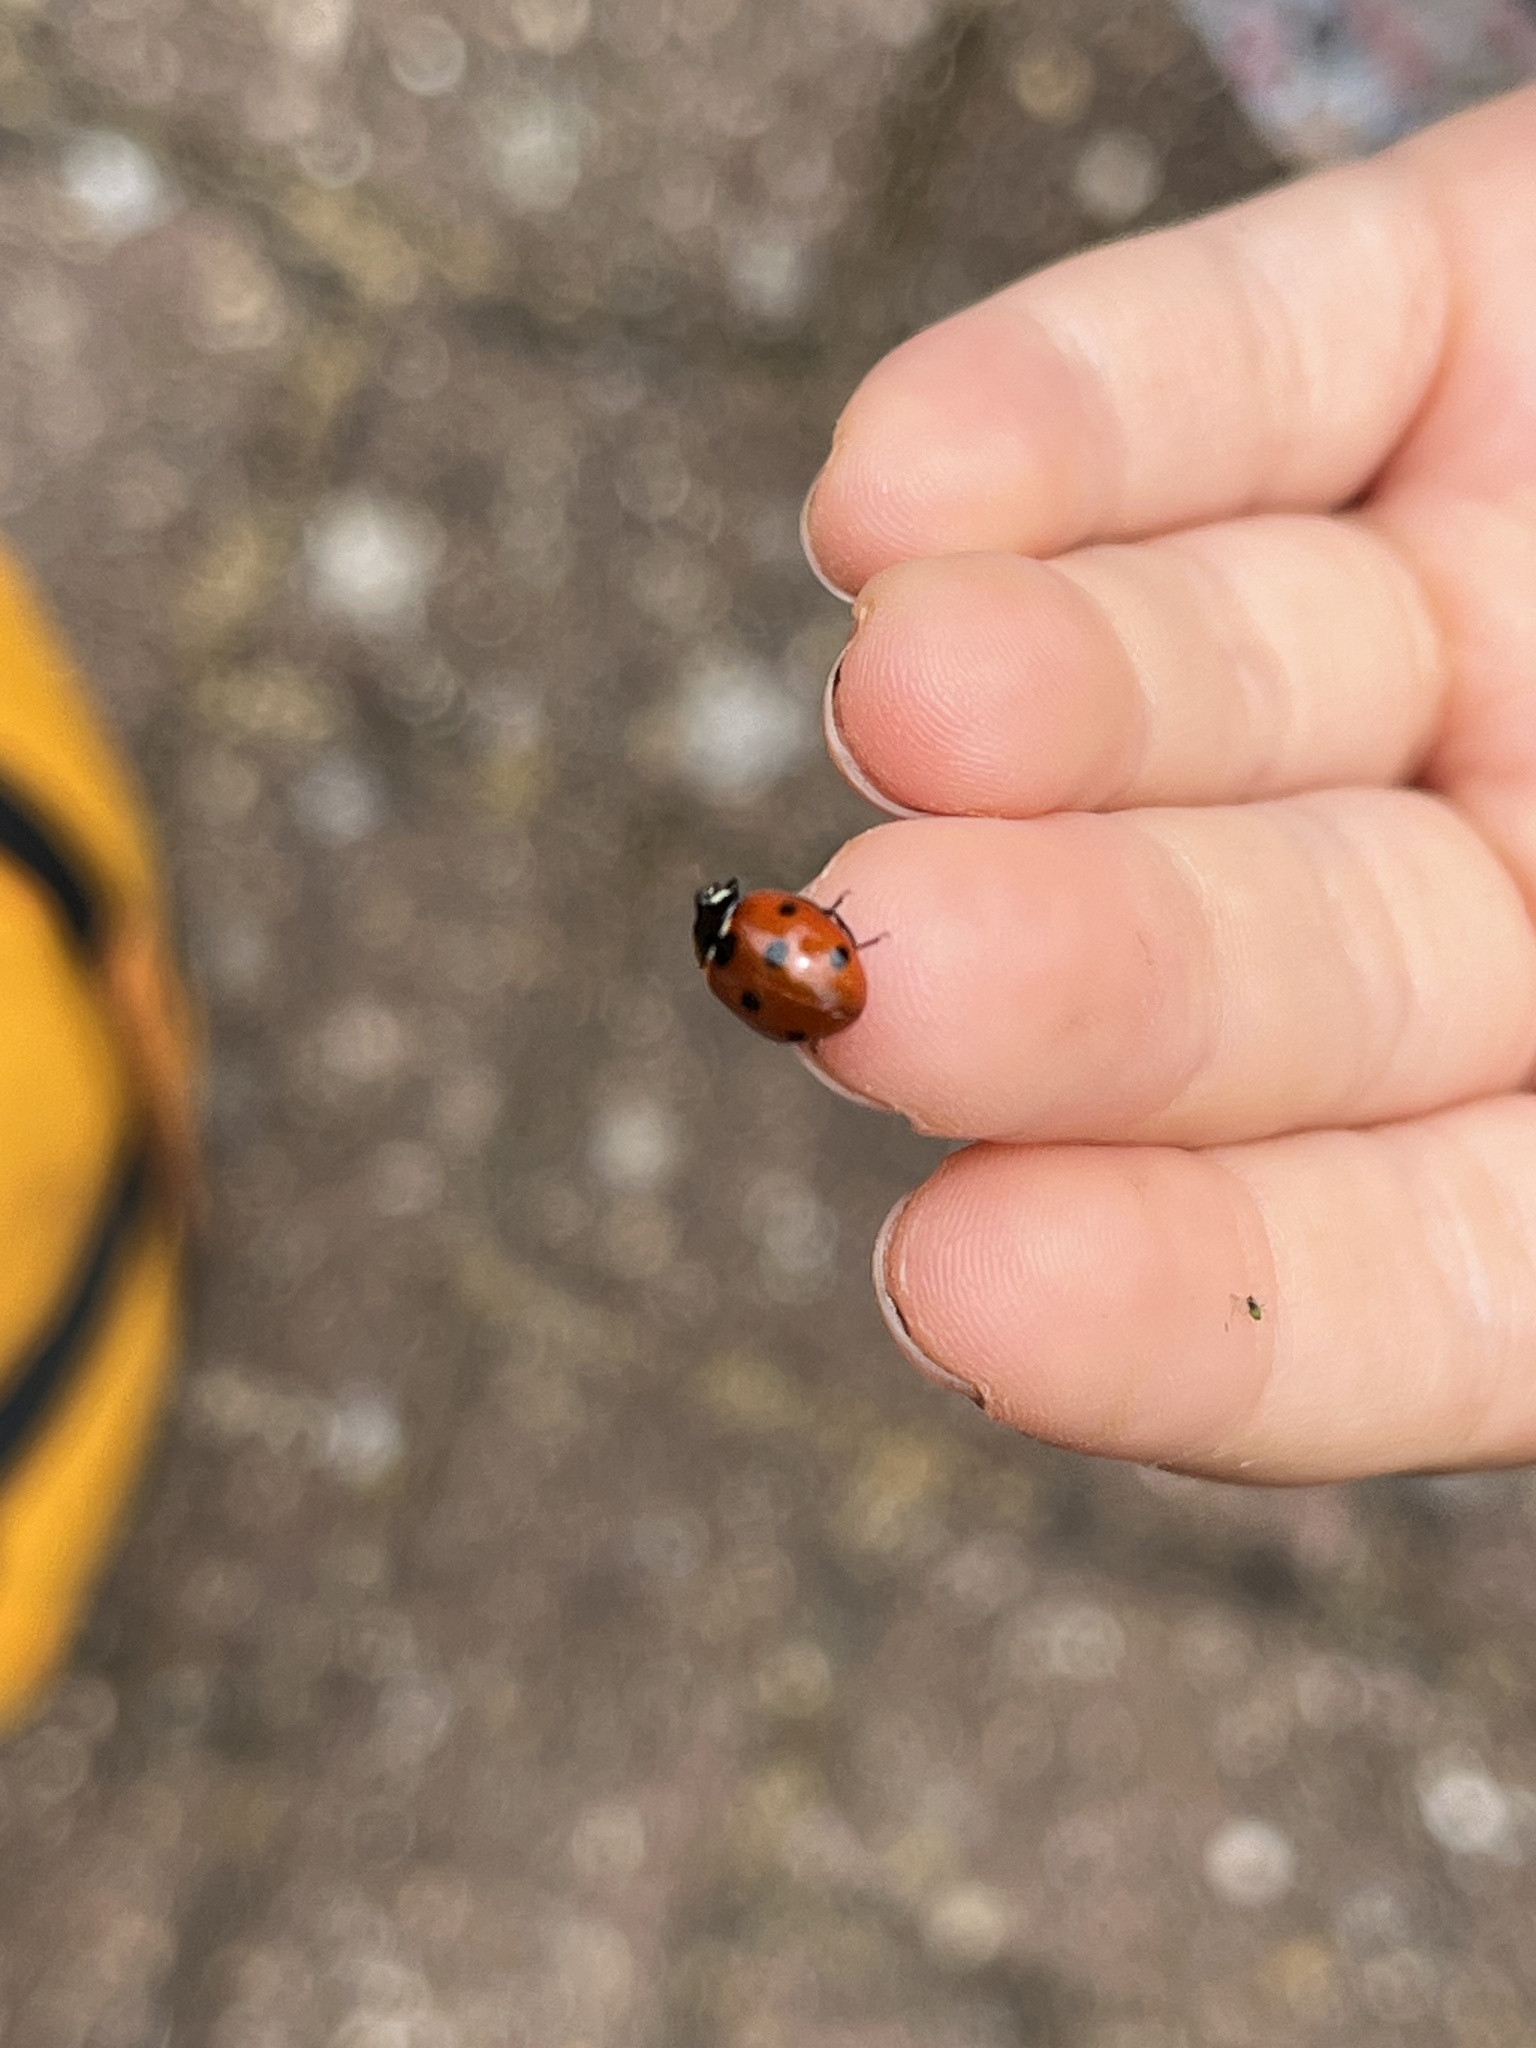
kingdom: Animalia
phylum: Arthropoda
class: Insecta
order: Coleoptera
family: Coccinellidae
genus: Coccinella
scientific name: Coccinella septempunctata
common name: Sevenspotted lady beetle
